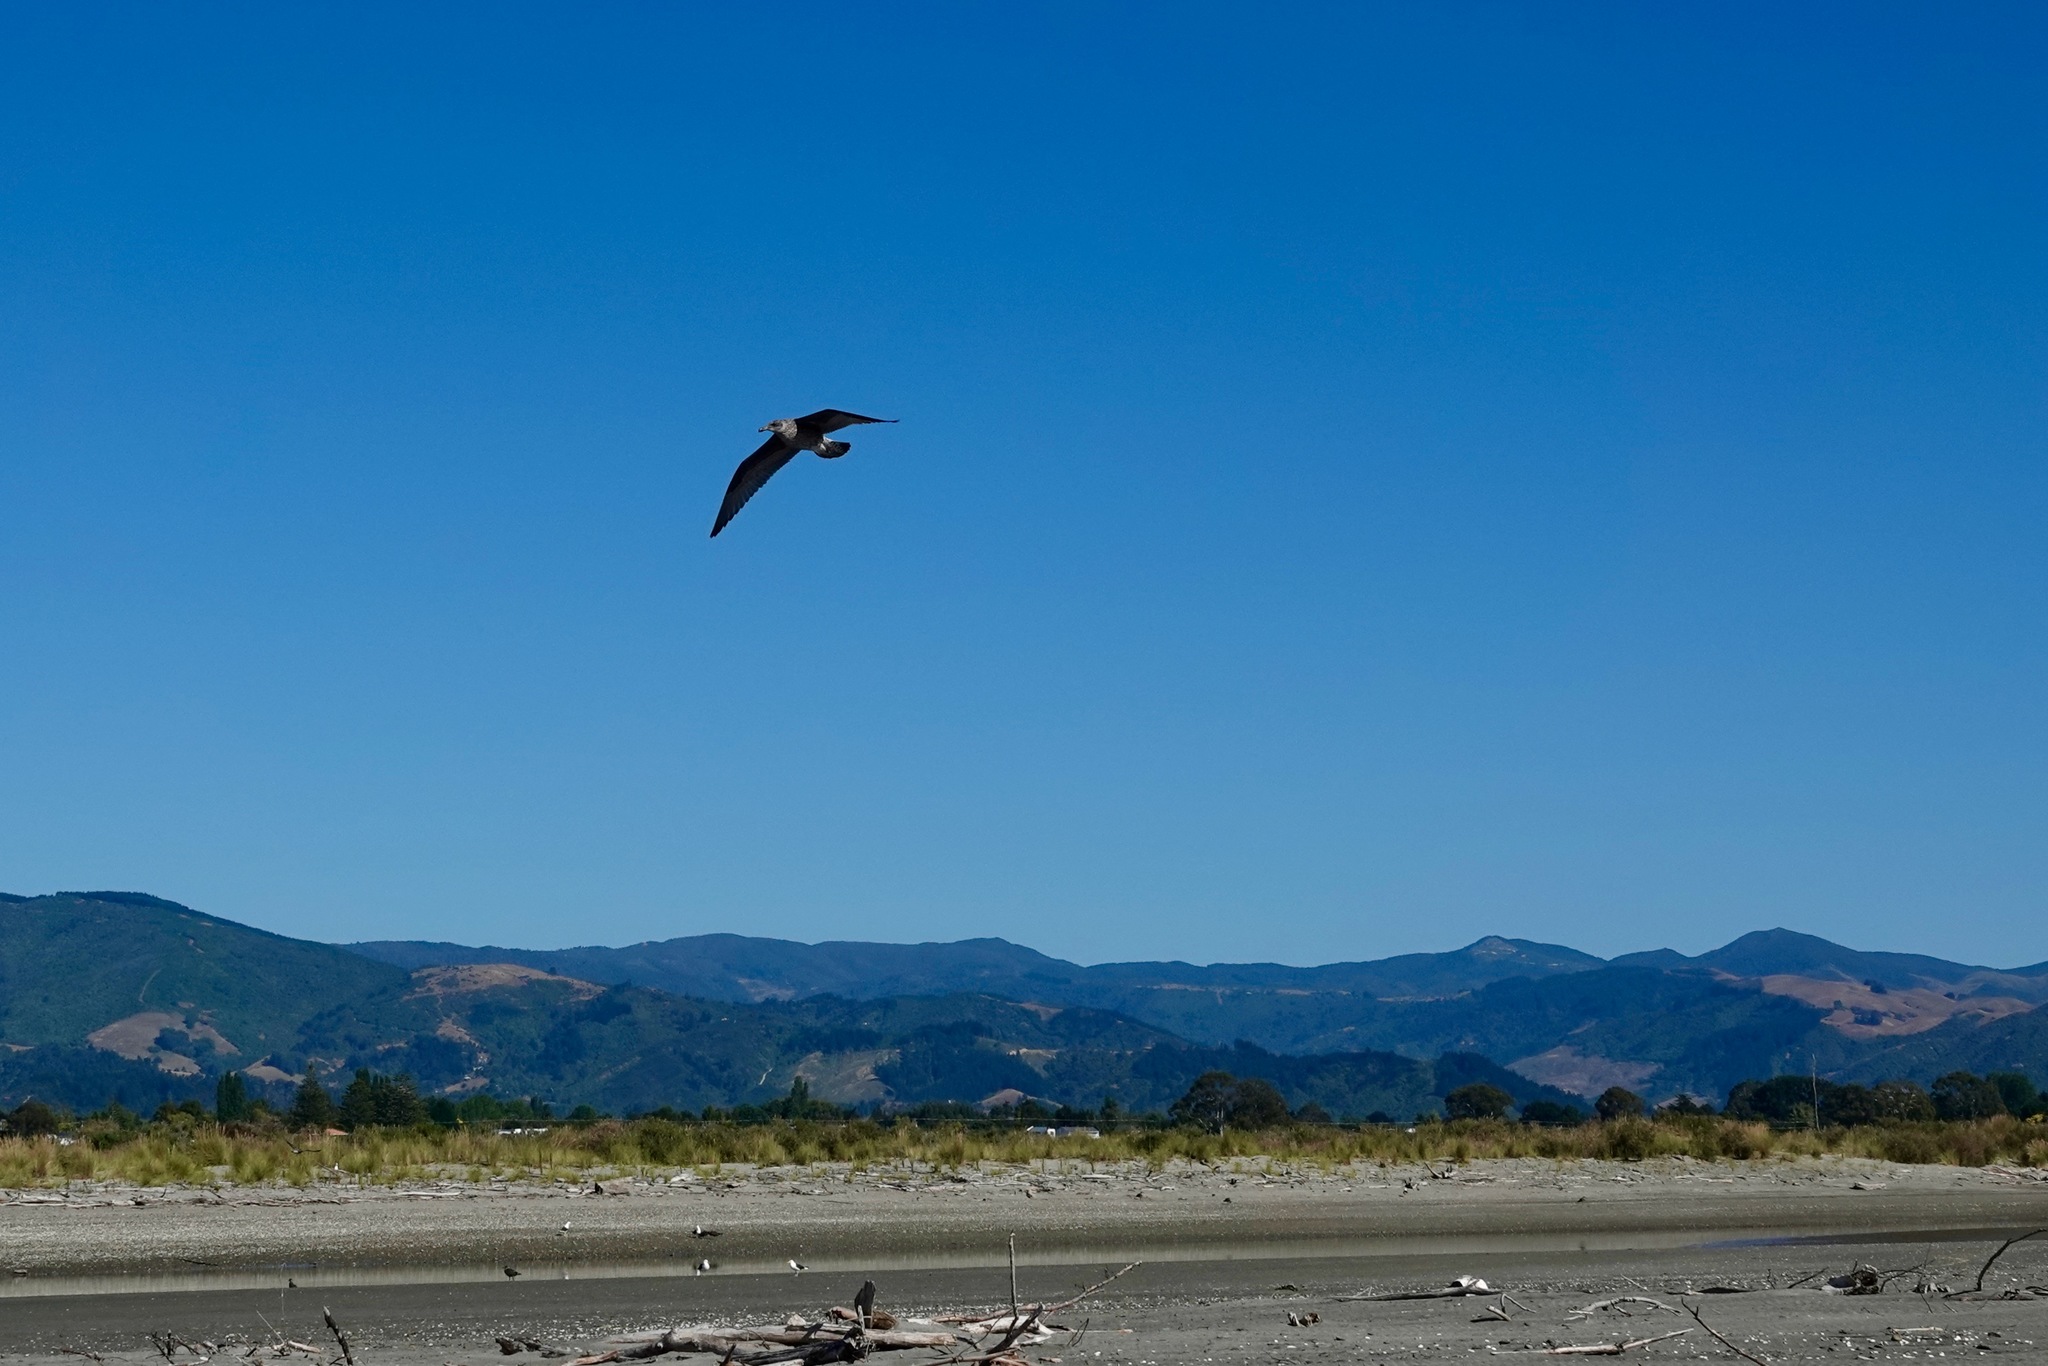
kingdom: Animalia
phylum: Chordata
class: Aves
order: Charadriiformes
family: Laridae
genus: Larus
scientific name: Larus dominicanus
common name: Kelp gull
